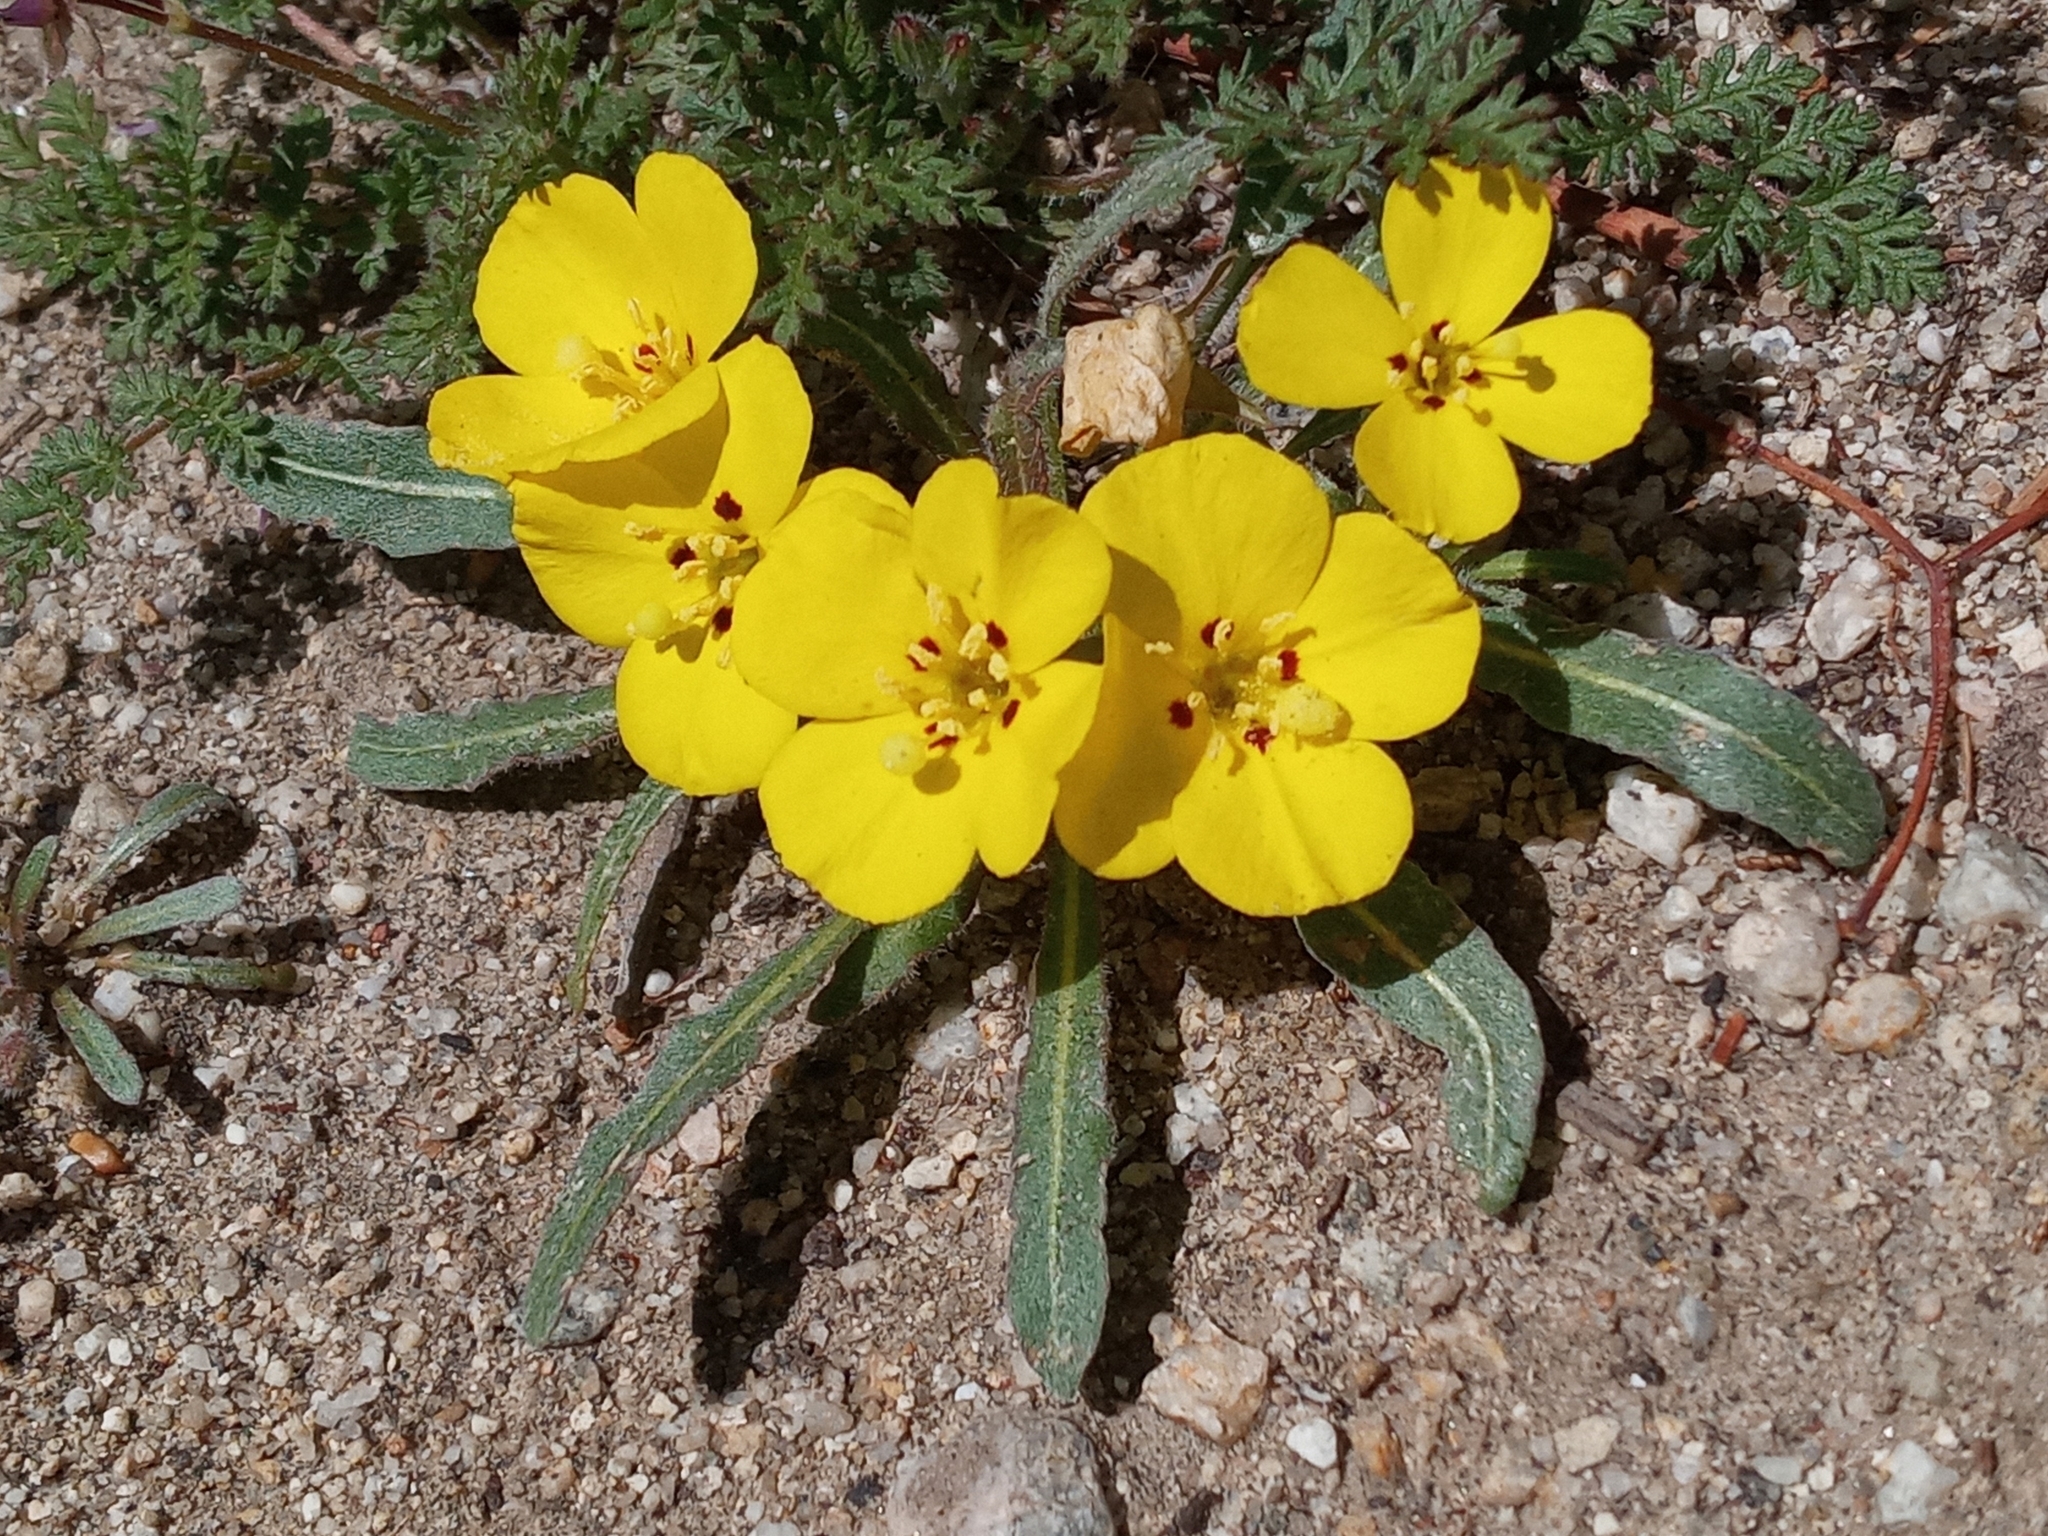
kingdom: Plantae
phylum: Tracheophyta
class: Magnoliopsida
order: Myrtales
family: Onagraceae
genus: Camissoniopsis
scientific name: Camissoniopsis bistorta
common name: Southern suncup
